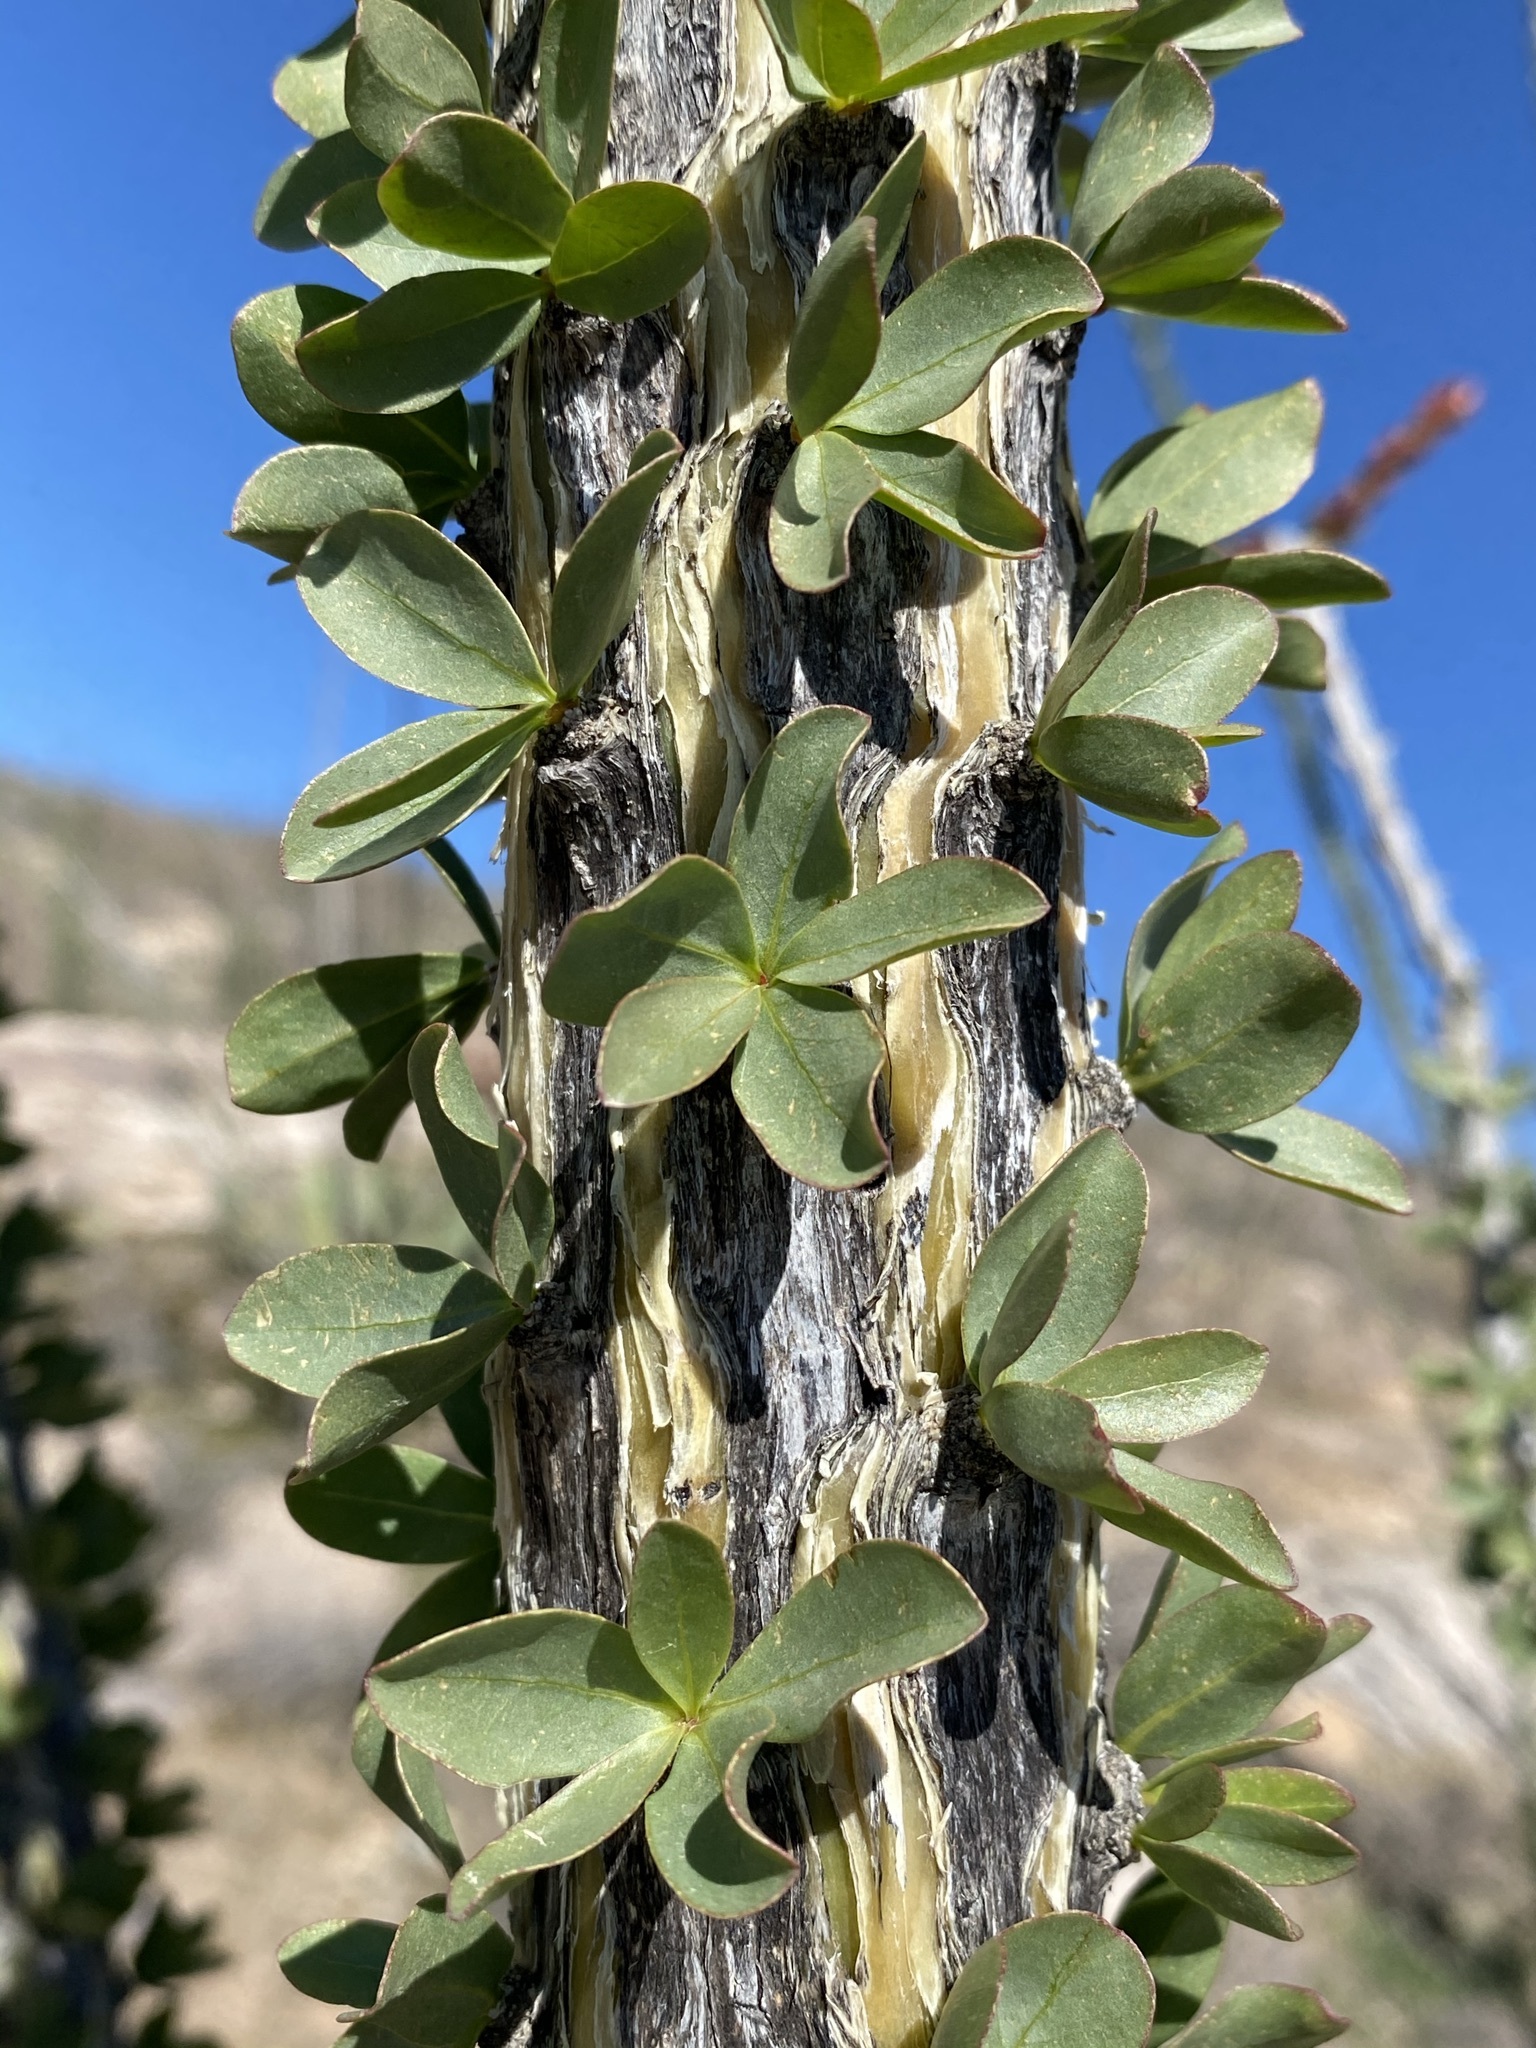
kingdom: Plantae
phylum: Tracheophyta
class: Magnoliopsida
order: Ericales
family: Fouquieriaceae
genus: Fouquieria
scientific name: Fouquieria splendens
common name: Vine-cactus
